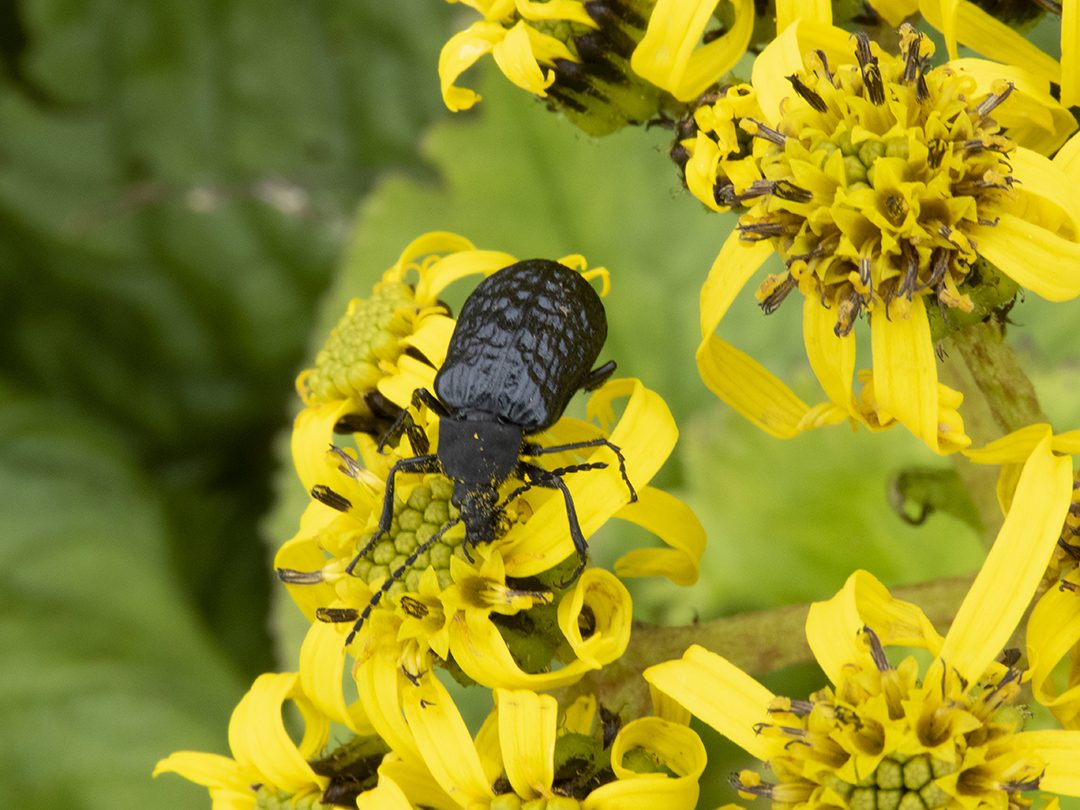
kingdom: Animalia
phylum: Arthropoda
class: Insecta
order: Coleoptera
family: Tenebrionidae
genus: Cteniopinus
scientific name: Cteniopinus
